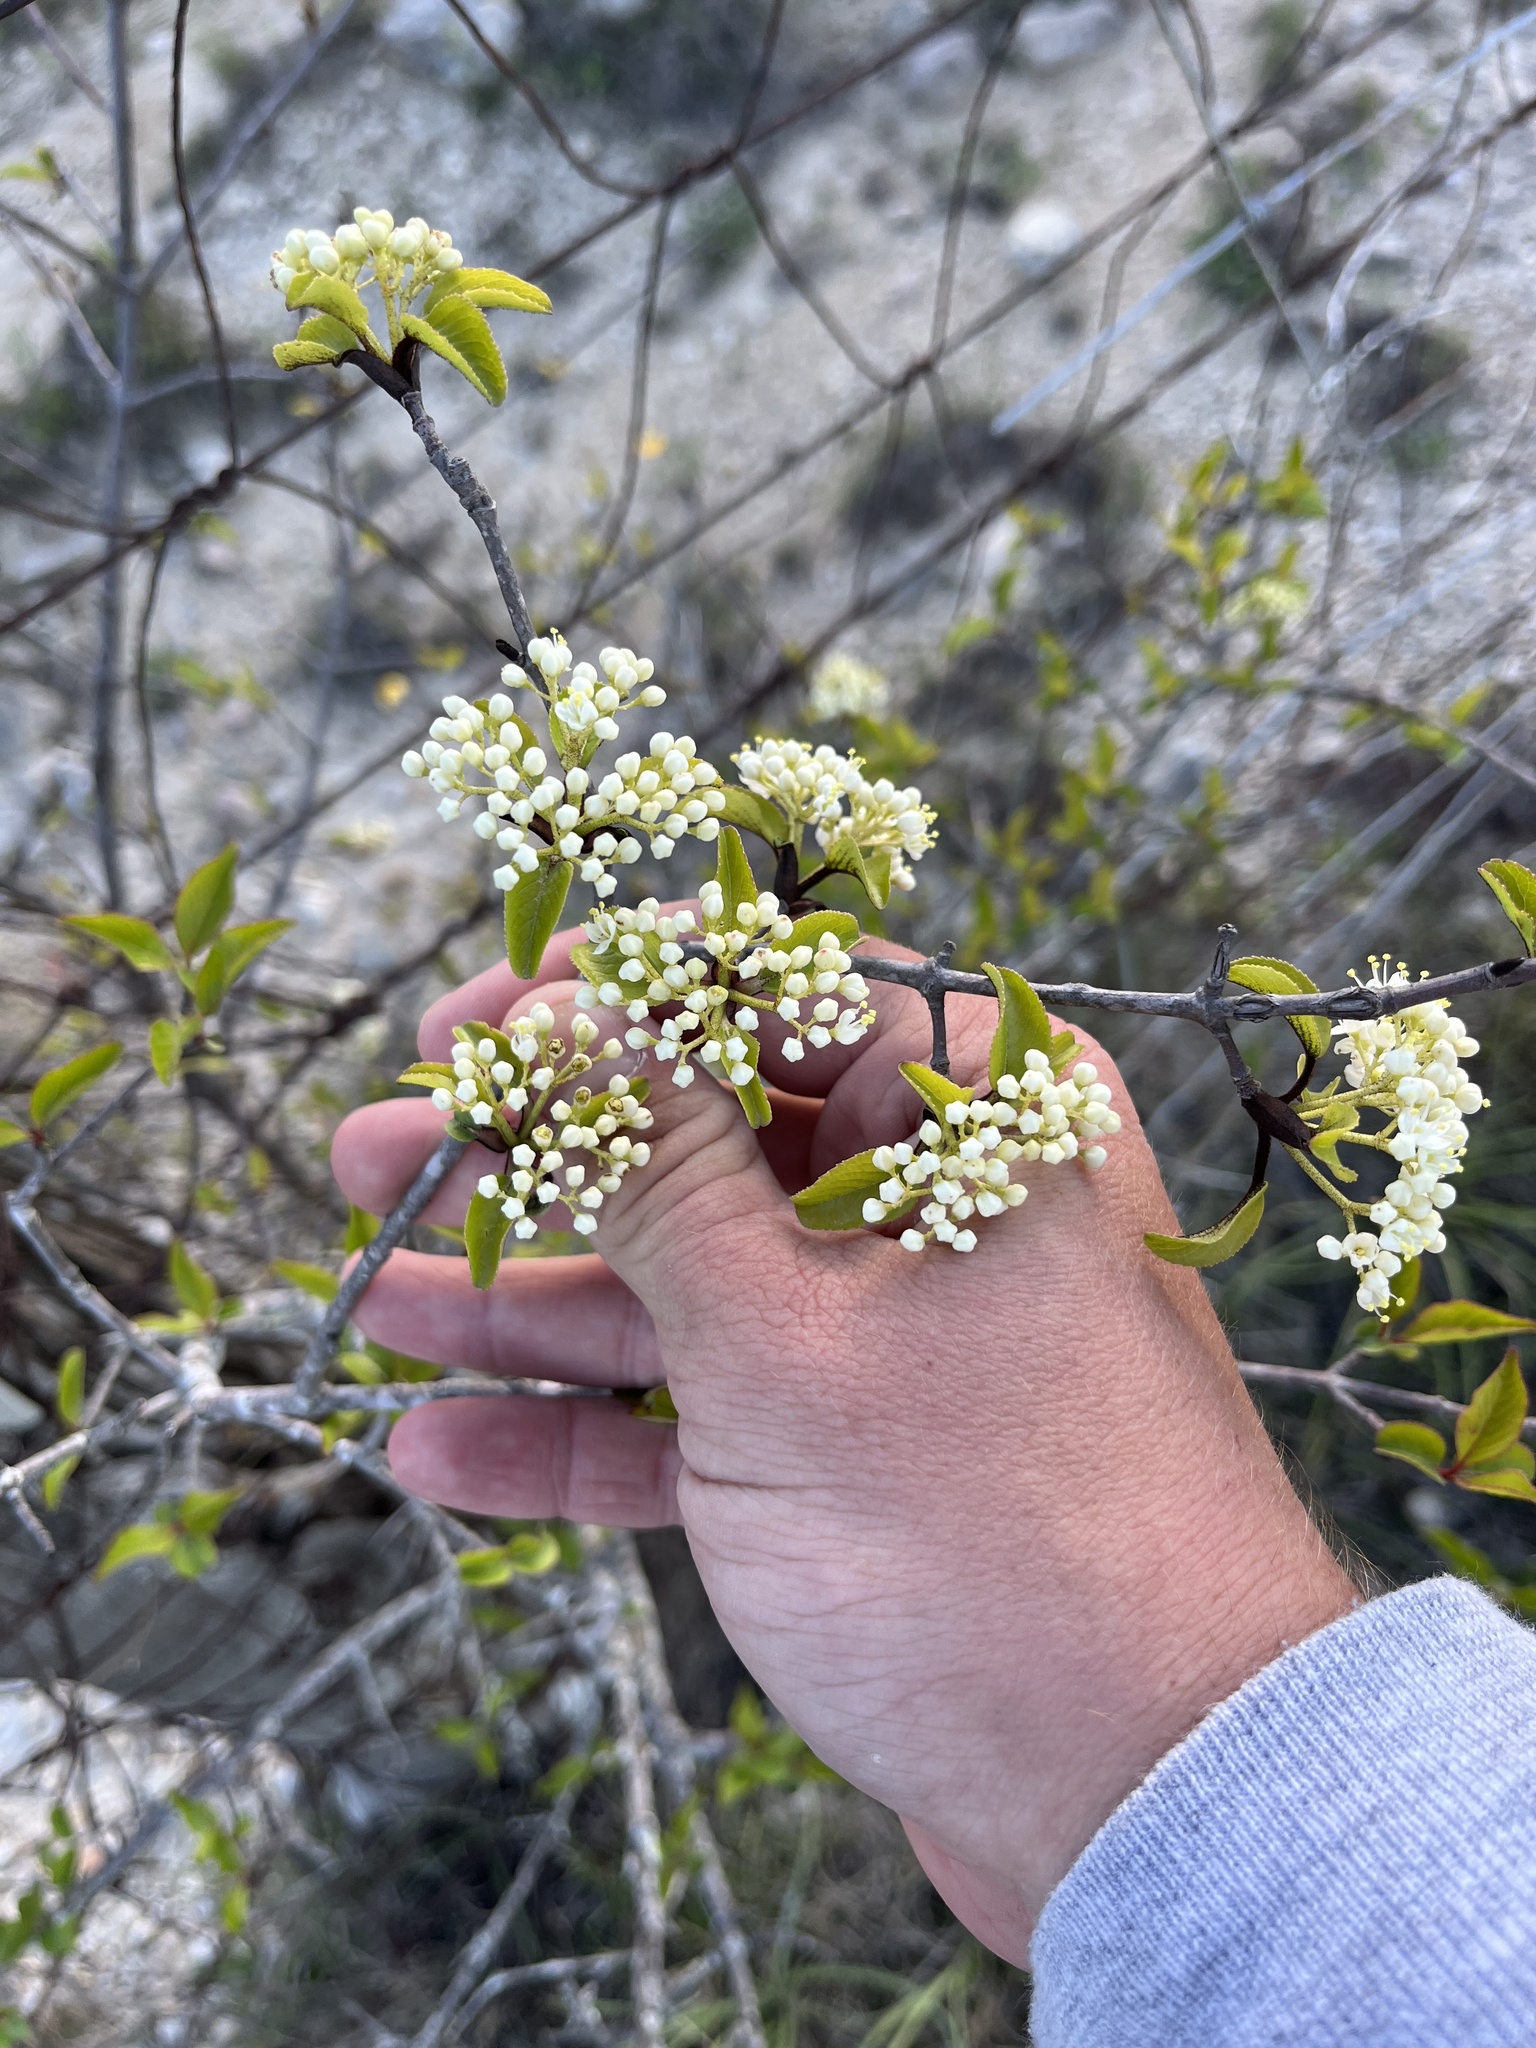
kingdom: Plantae
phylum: Tracheophyta
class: Magnoliopsida
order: Dipsacales
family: Viburnaceae
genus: Viburnum
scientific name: Viburnum rufidulum
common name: Blue haw
